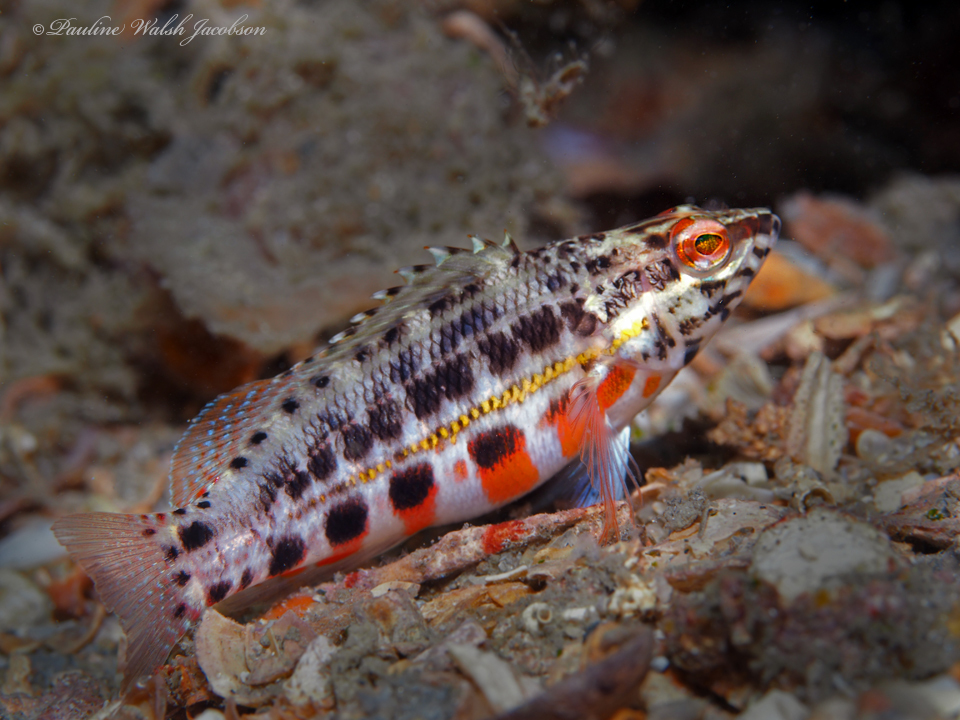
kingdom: Animalia
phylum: Chordata
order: Perciformes
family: Serranidae
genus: Serranus
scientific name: Serranus baldwini
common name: Lantern bass
